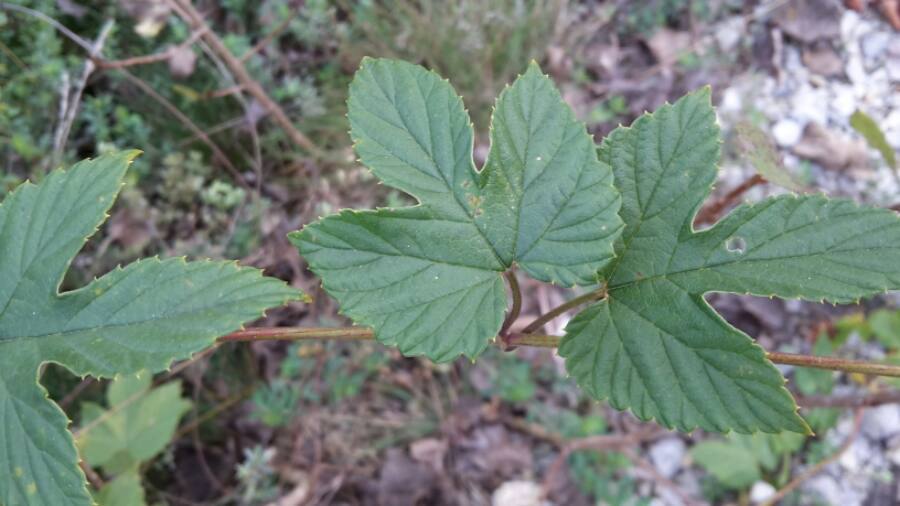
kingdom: Plantae
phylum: Tracheophyta
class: Magnoliopsida
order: Rosales
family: Cannabaceae
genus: Humulus
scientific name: Humulus lupulus
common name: Hop
